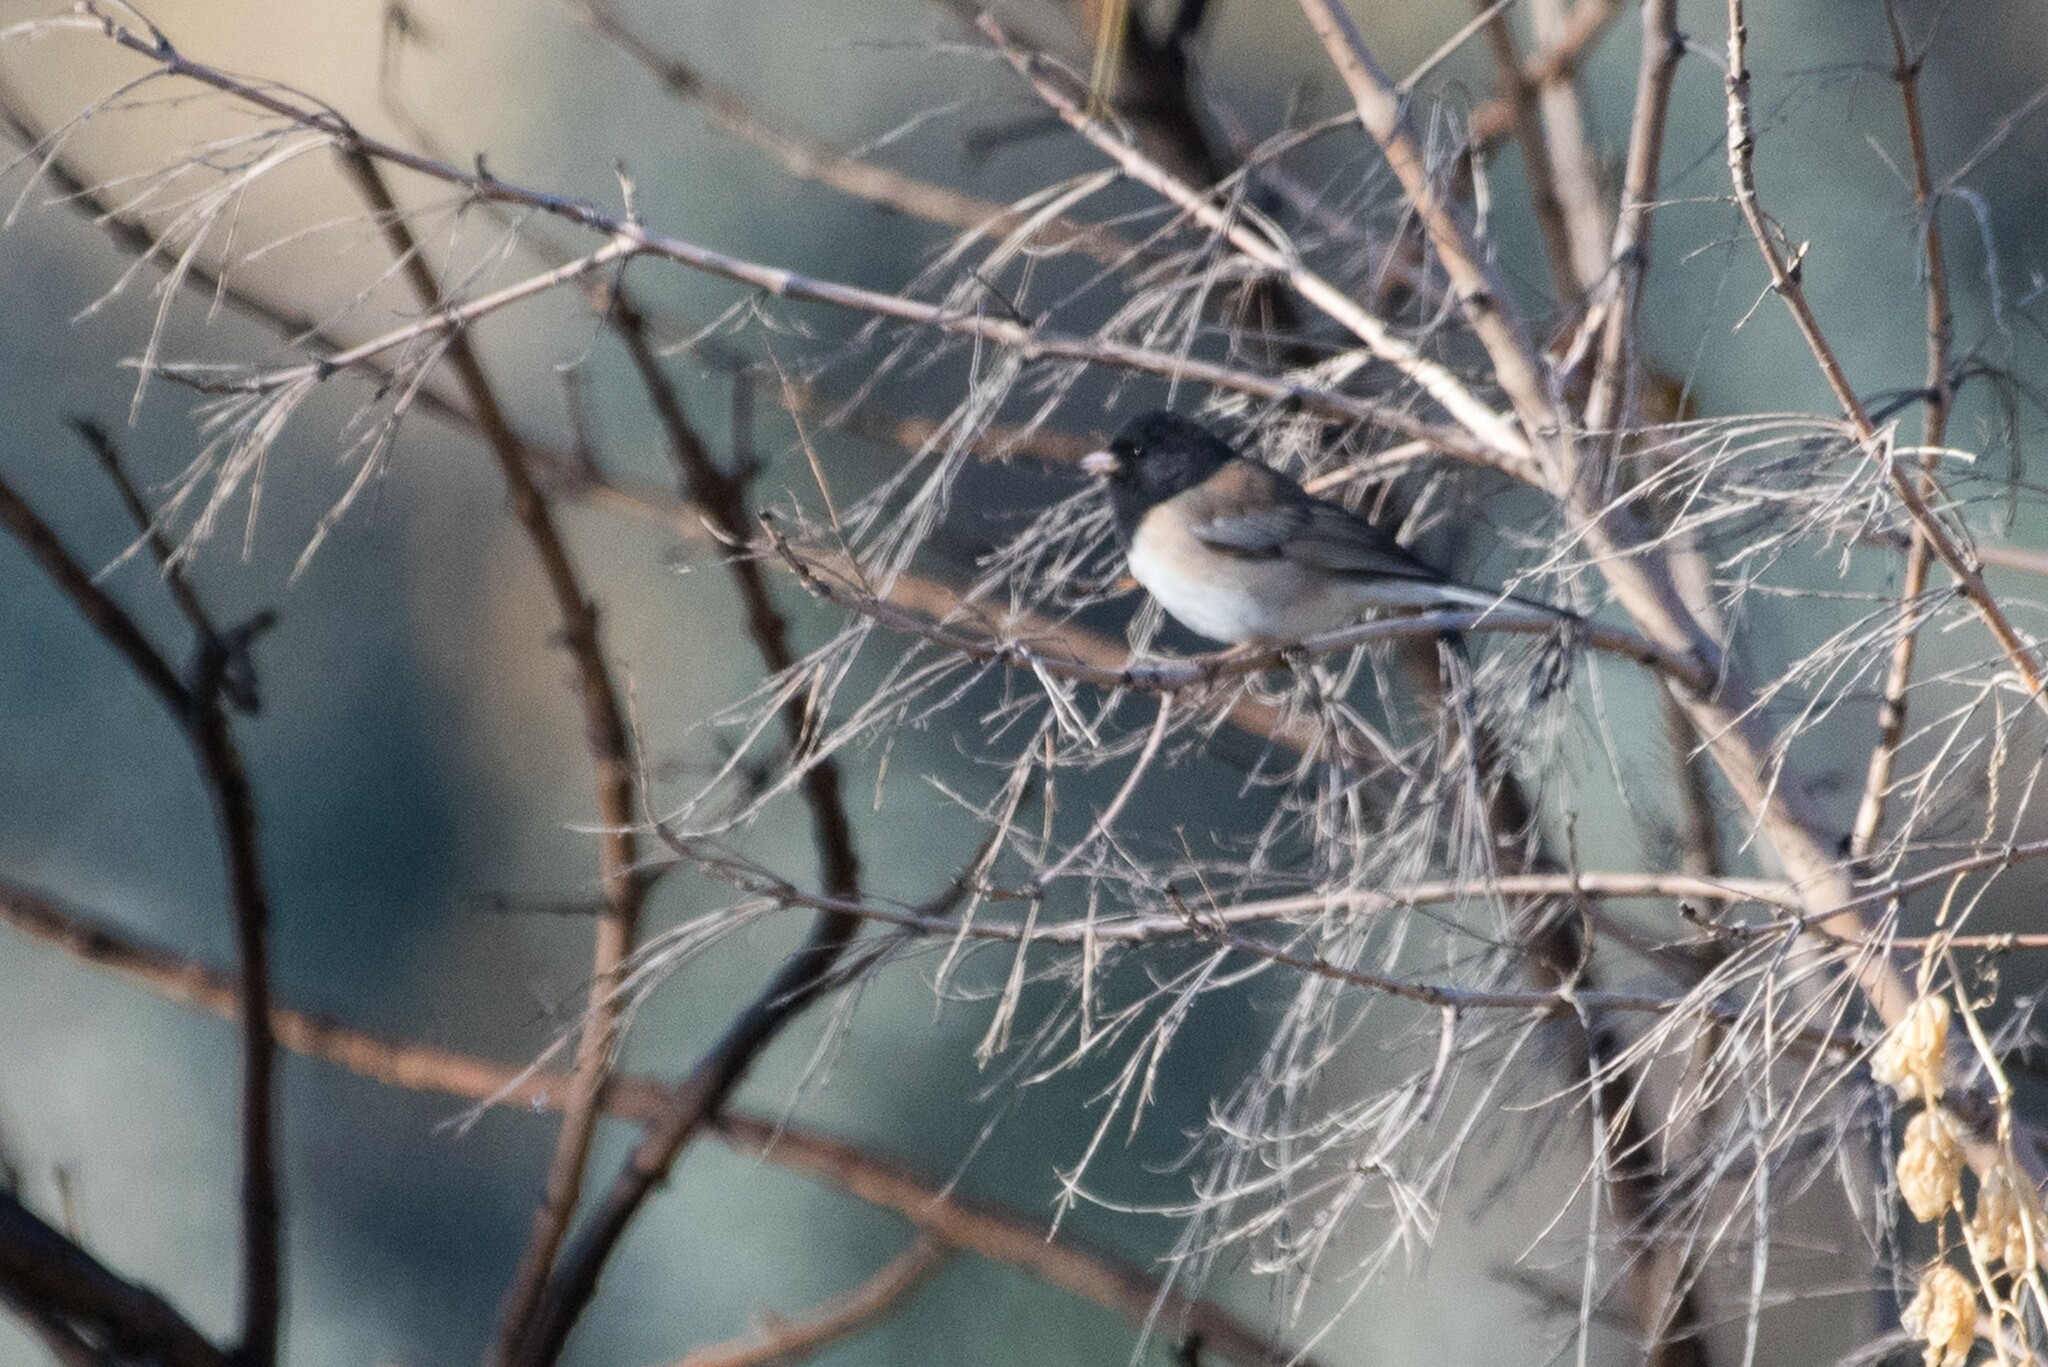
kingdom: Animalia
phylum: Chordata
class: Aves
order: Passeriformes
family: Passerellidae
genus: Junco
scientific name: Junco hyemalis
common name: Dark-eyed junco
